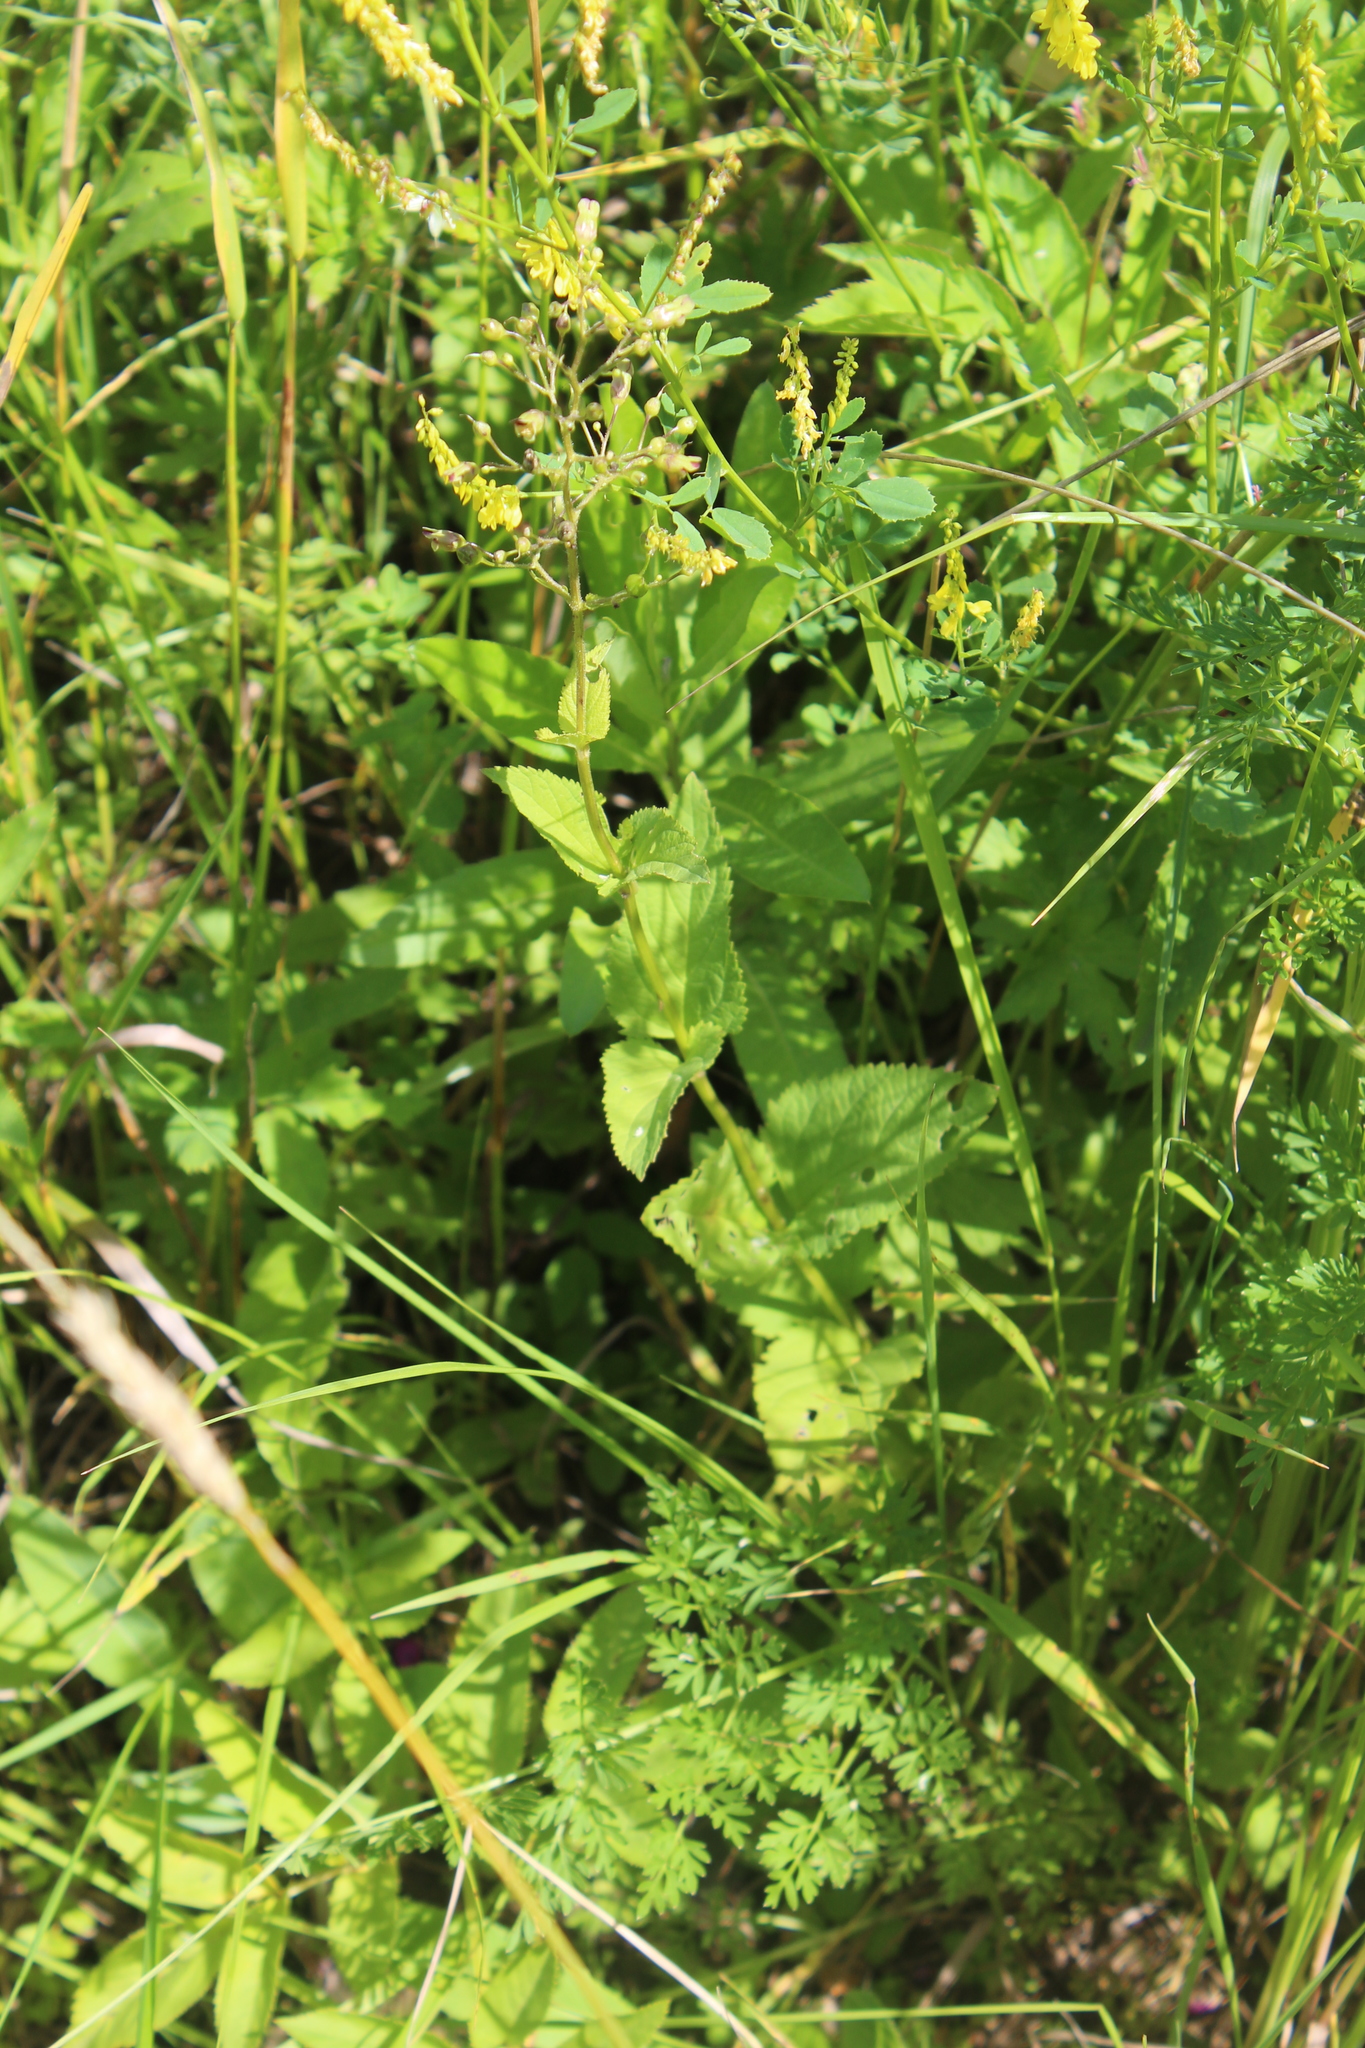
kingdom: Plantae
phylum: Tracheophyta
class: Magnoliopsida
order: Lamiales
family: Scrophulariaceae
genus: Scrophularia
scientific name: Scrophularia nodosa
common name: Common figwort
